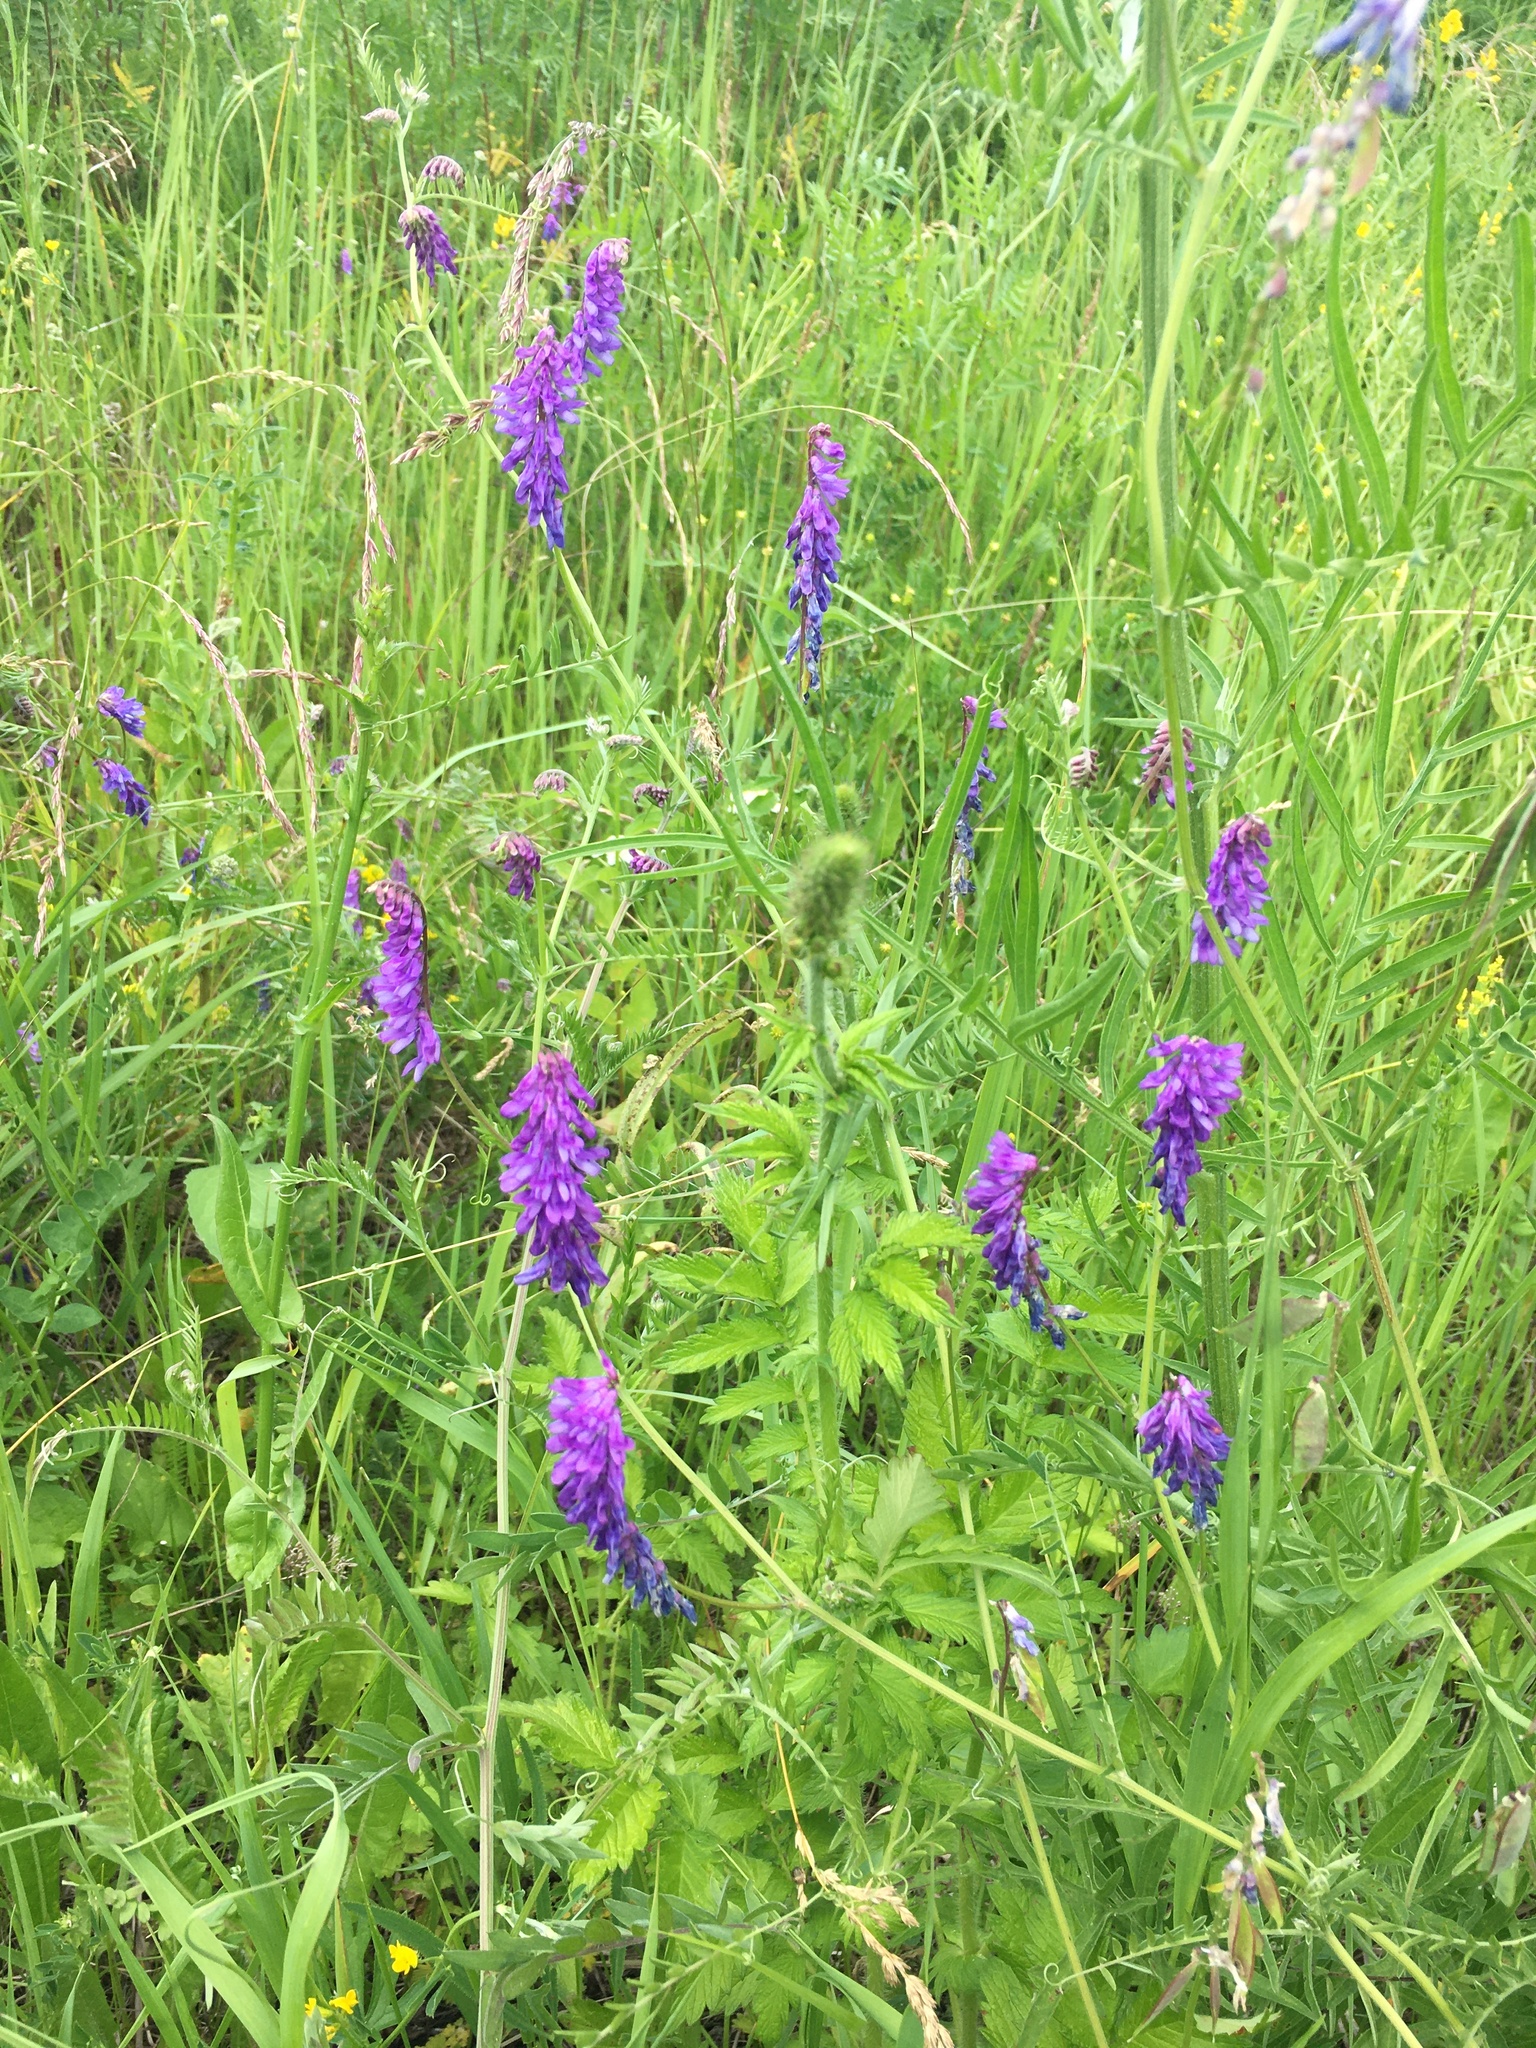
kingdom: Plantae
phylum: Tracheophyta
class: Magnoliopsida
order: Fabales
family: Fabaceae
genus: Vicia
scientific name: Vicia cracca
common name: Bird vetch
